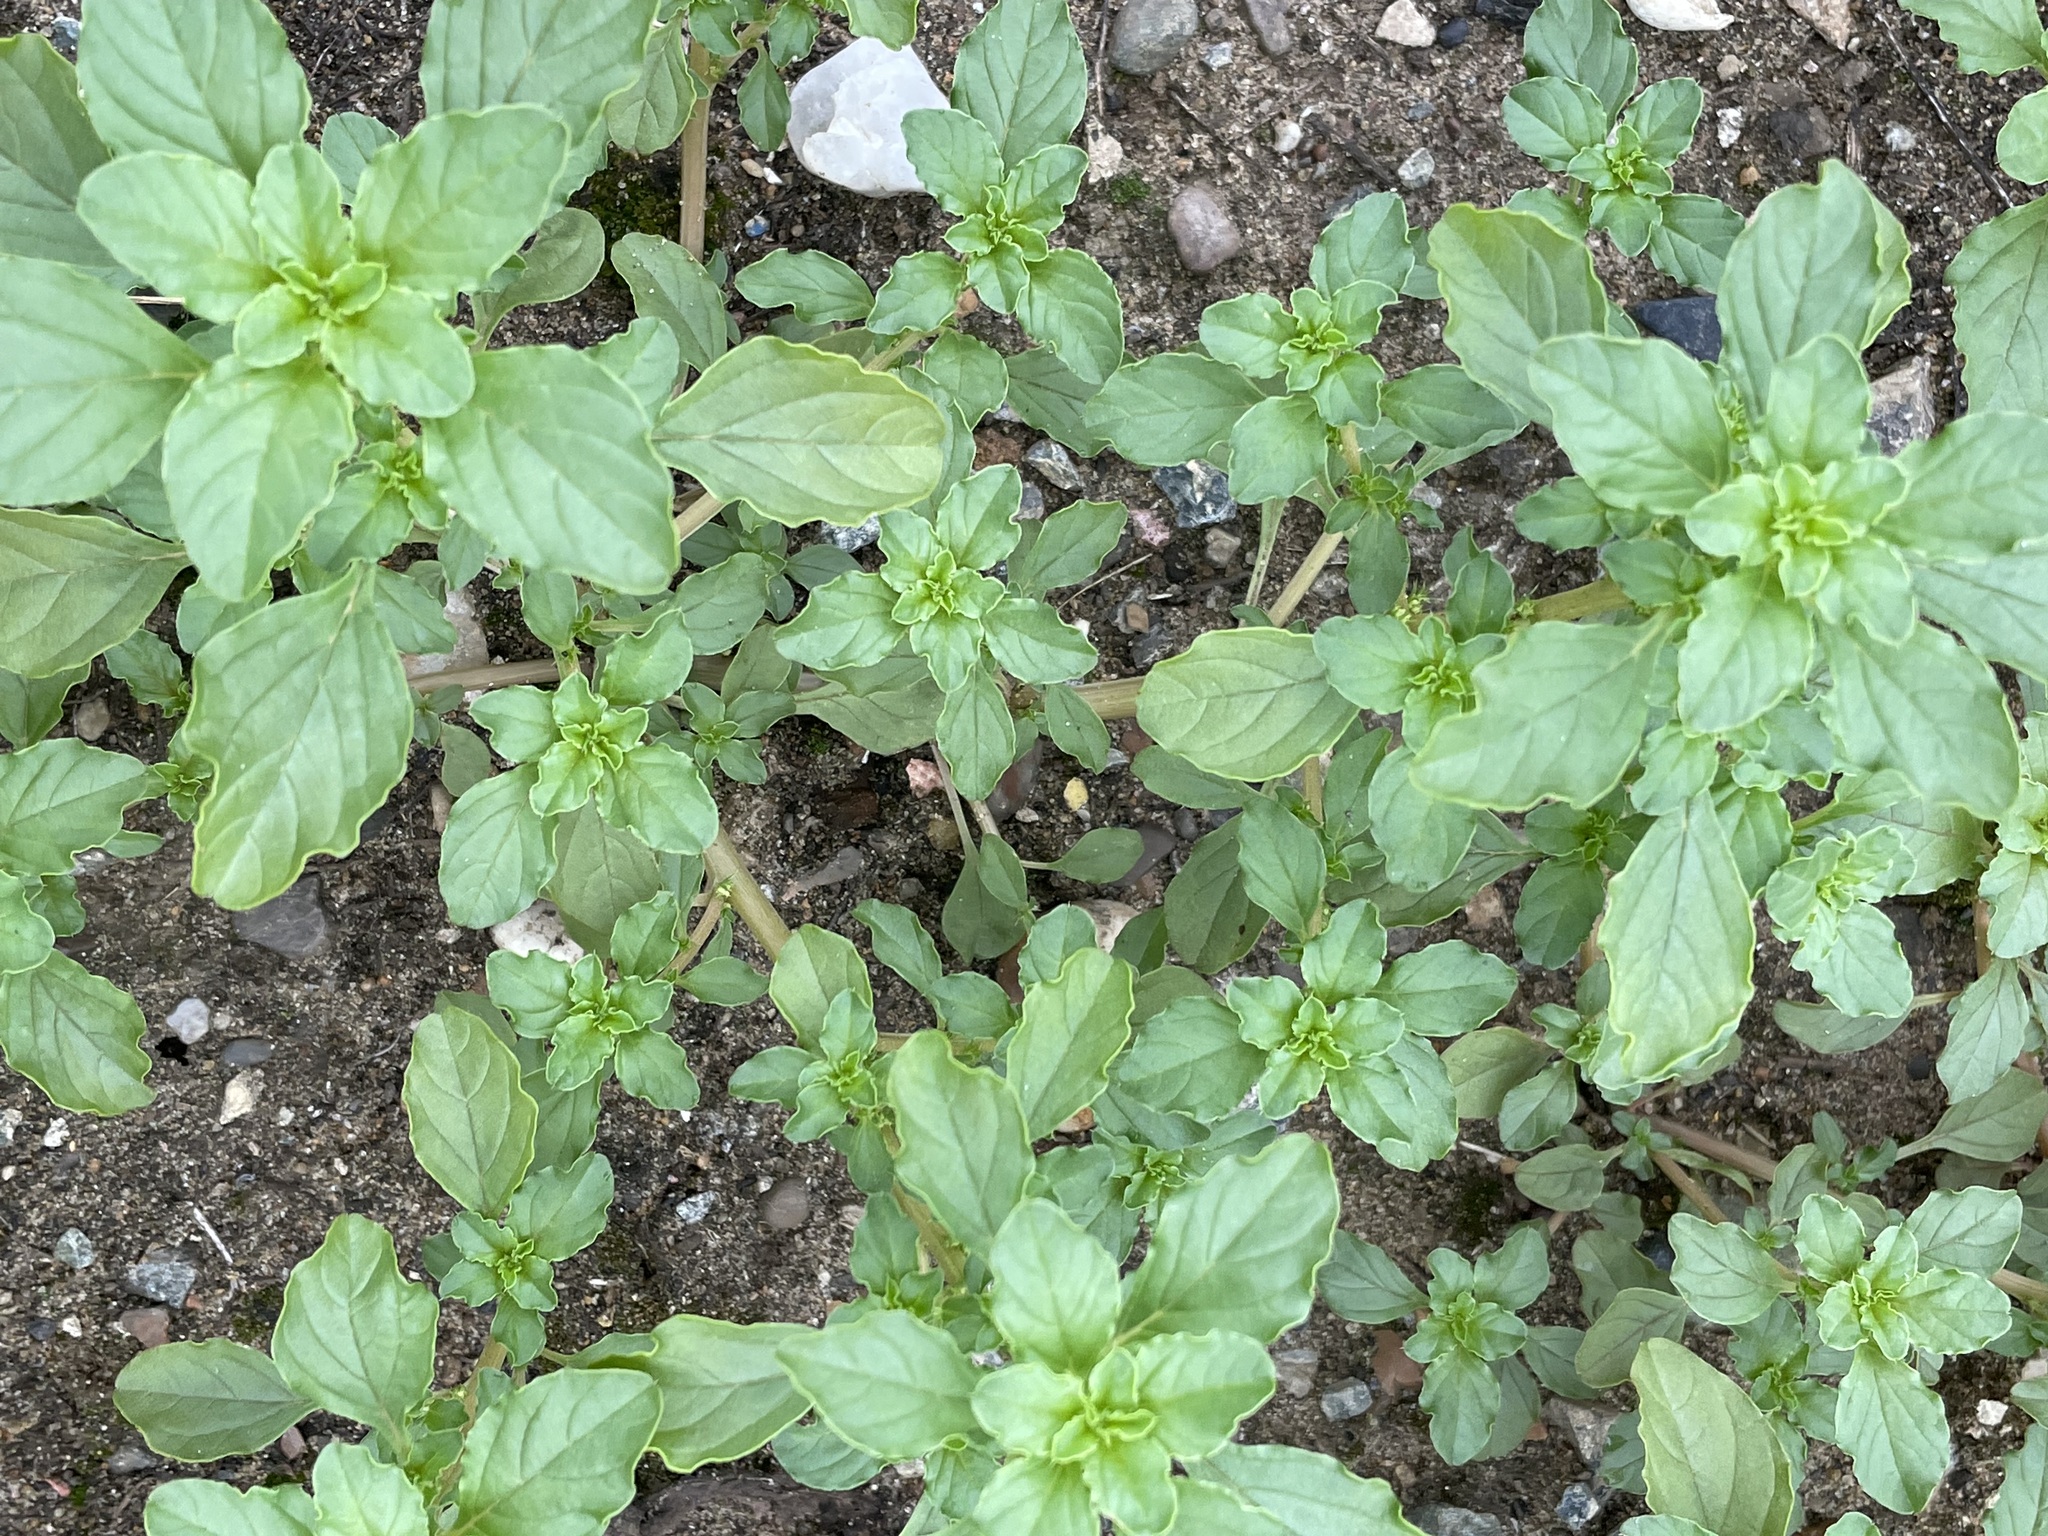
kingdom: Plantae
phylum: Tracheophyta
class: Magnoliopsida
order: Caryophyllales
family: Amaranthaceae
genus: Amaranthus
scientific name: Amaranthus albus
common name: White pigweed
